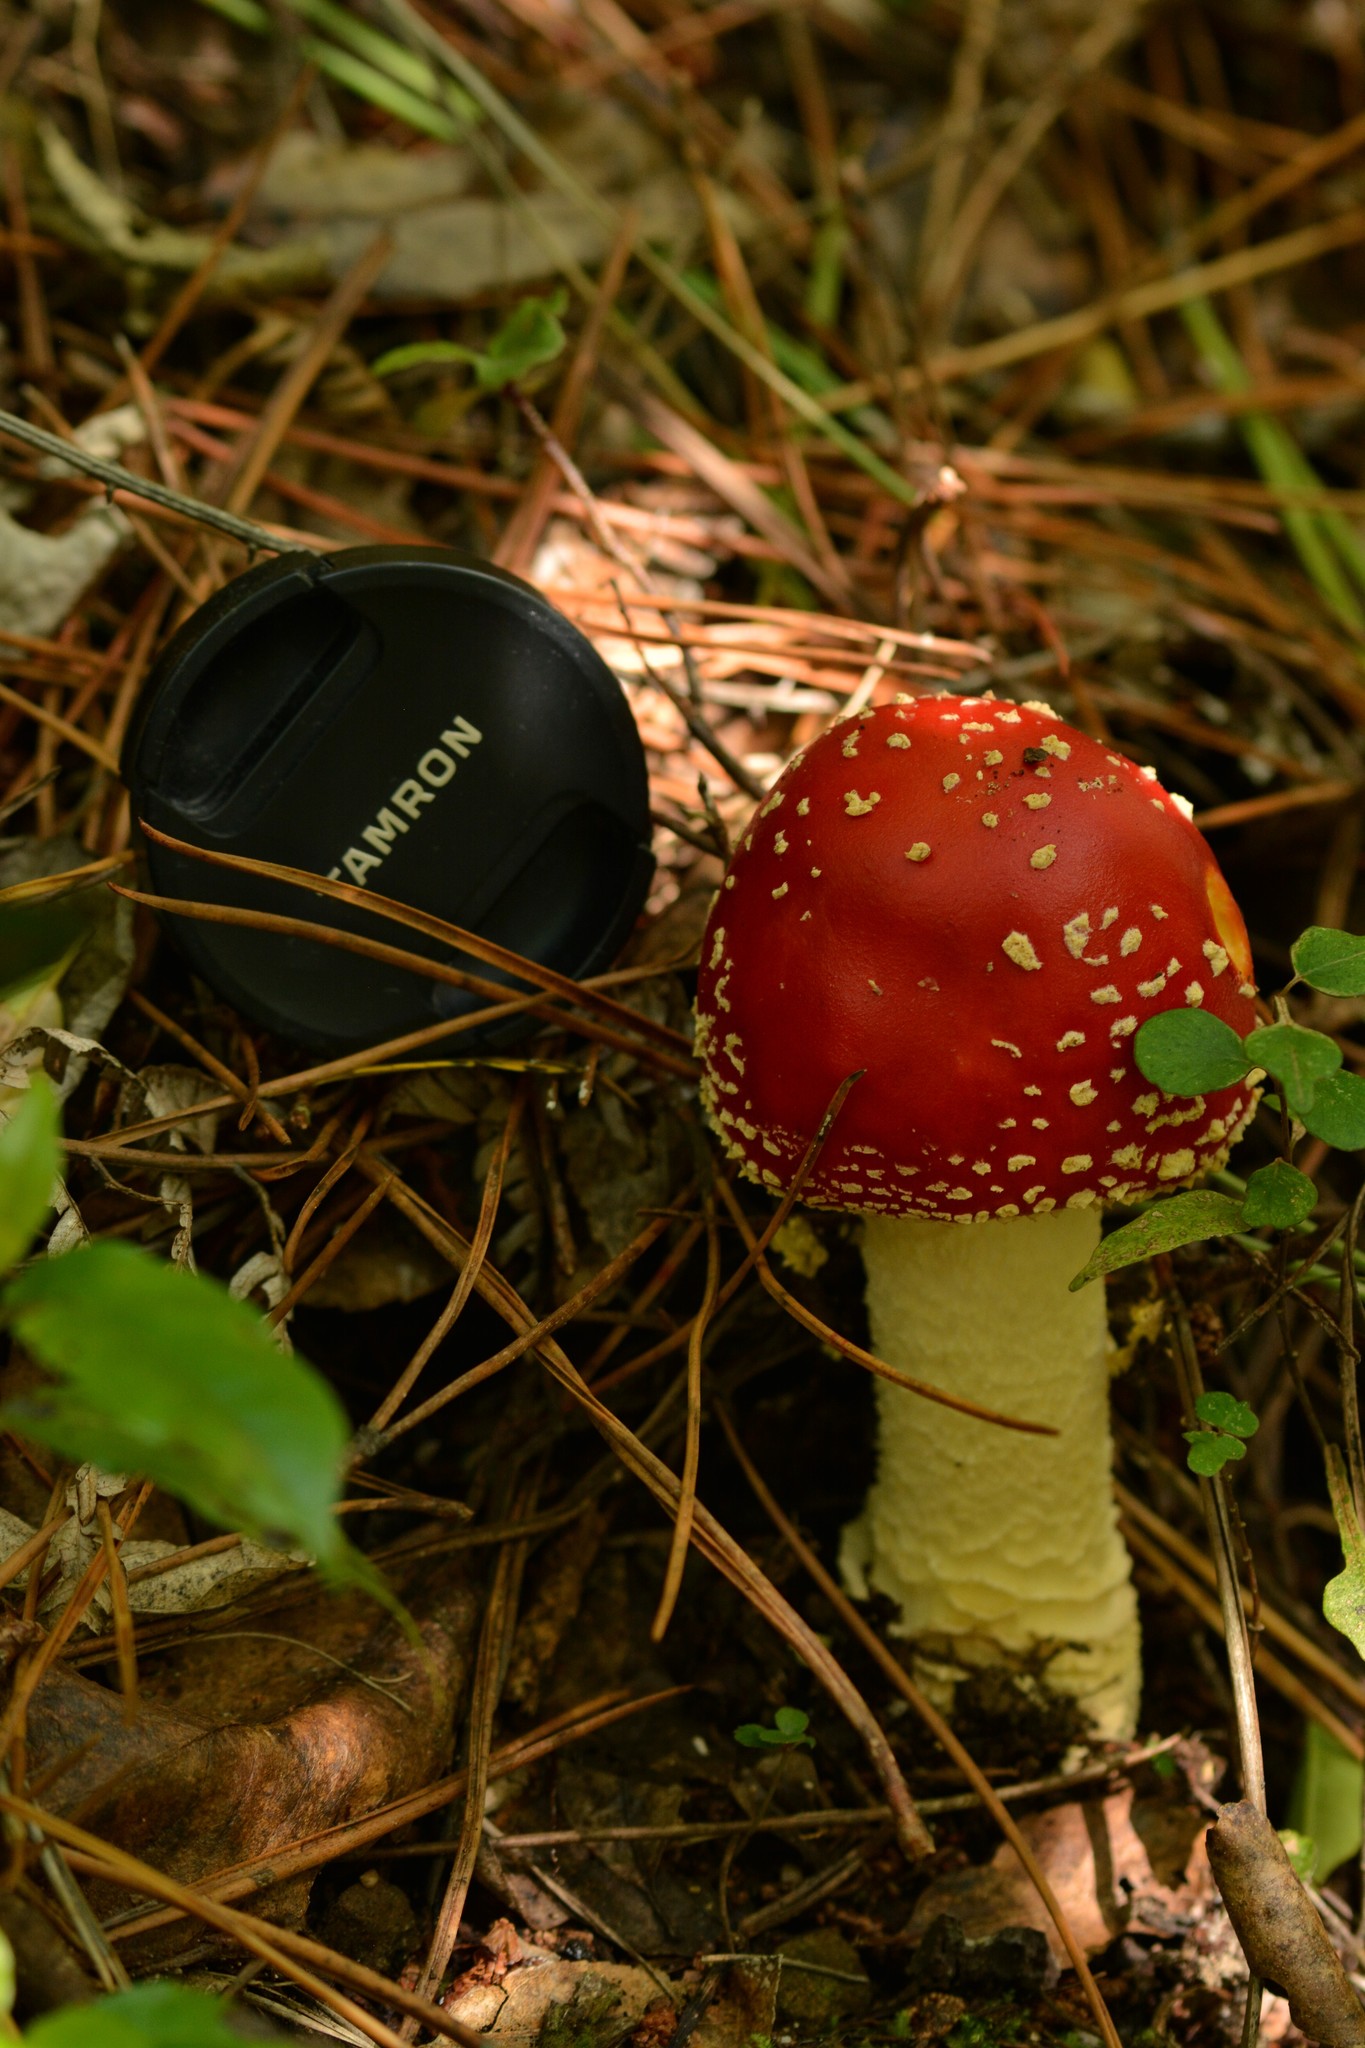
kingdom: Fungi
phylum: Basidiomycota
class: Agaricomycetes
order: Agaricales
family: Amanitaceae
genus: Amanita
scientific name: Amanita muscaria
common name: Fly agaric
